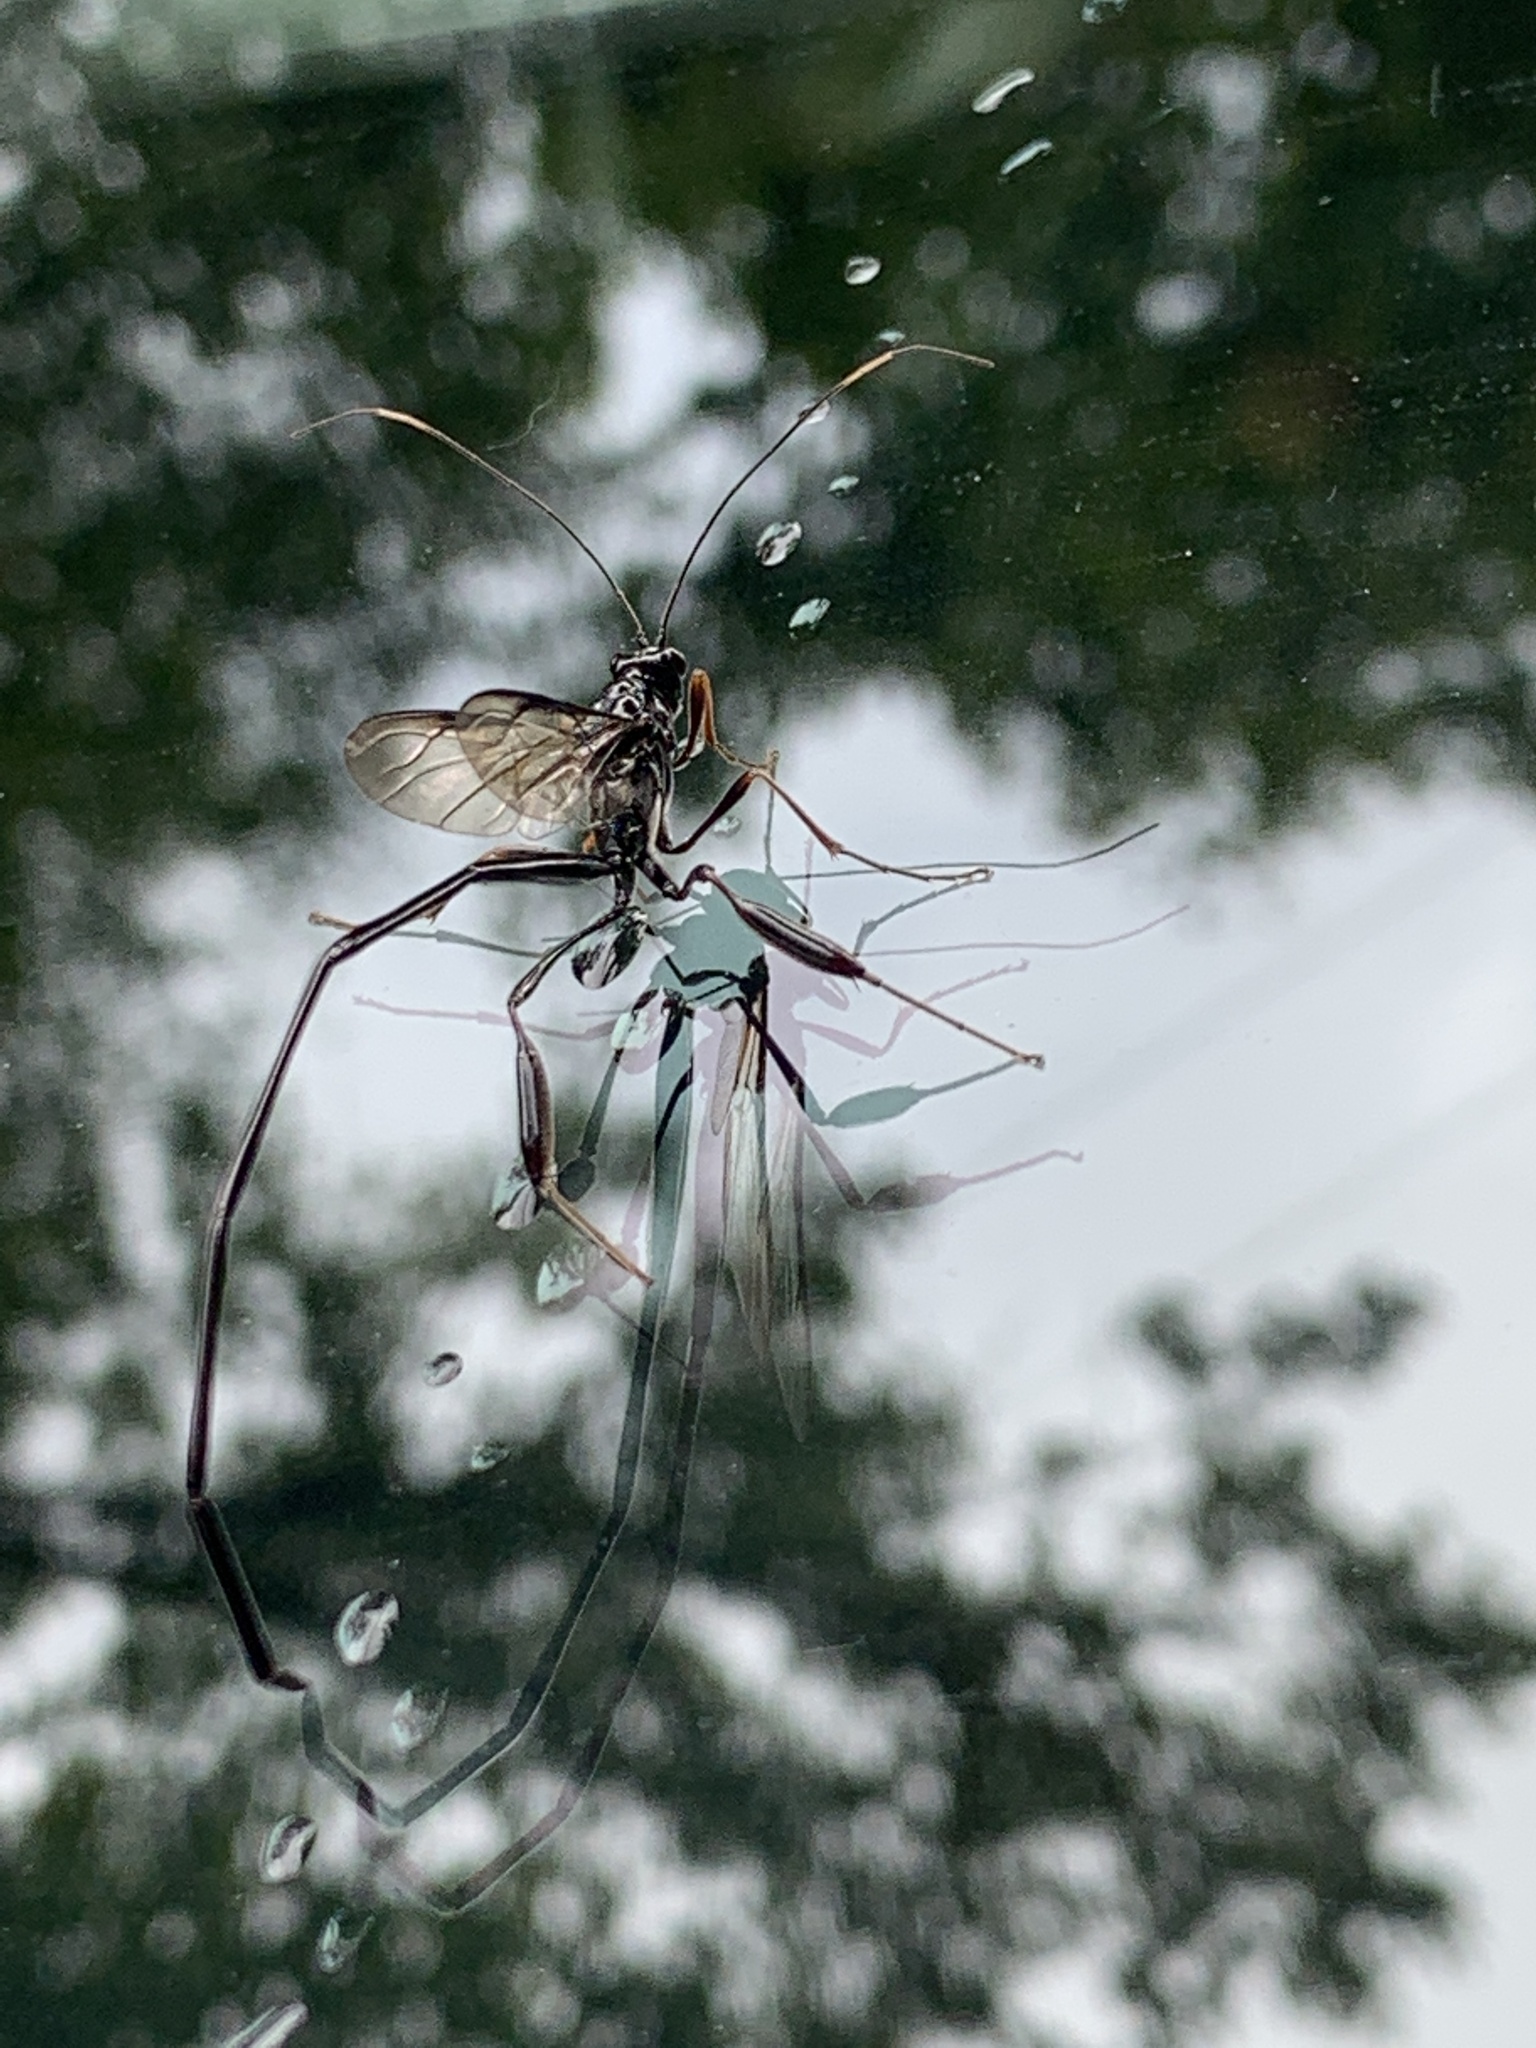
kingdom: Animalia
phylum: Arthropoda
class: Insecta
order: Hymenoptera
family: Pelecinidae
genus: Pelecinus
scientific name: Pelecinus polyturator
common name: American pelecinid wasp
